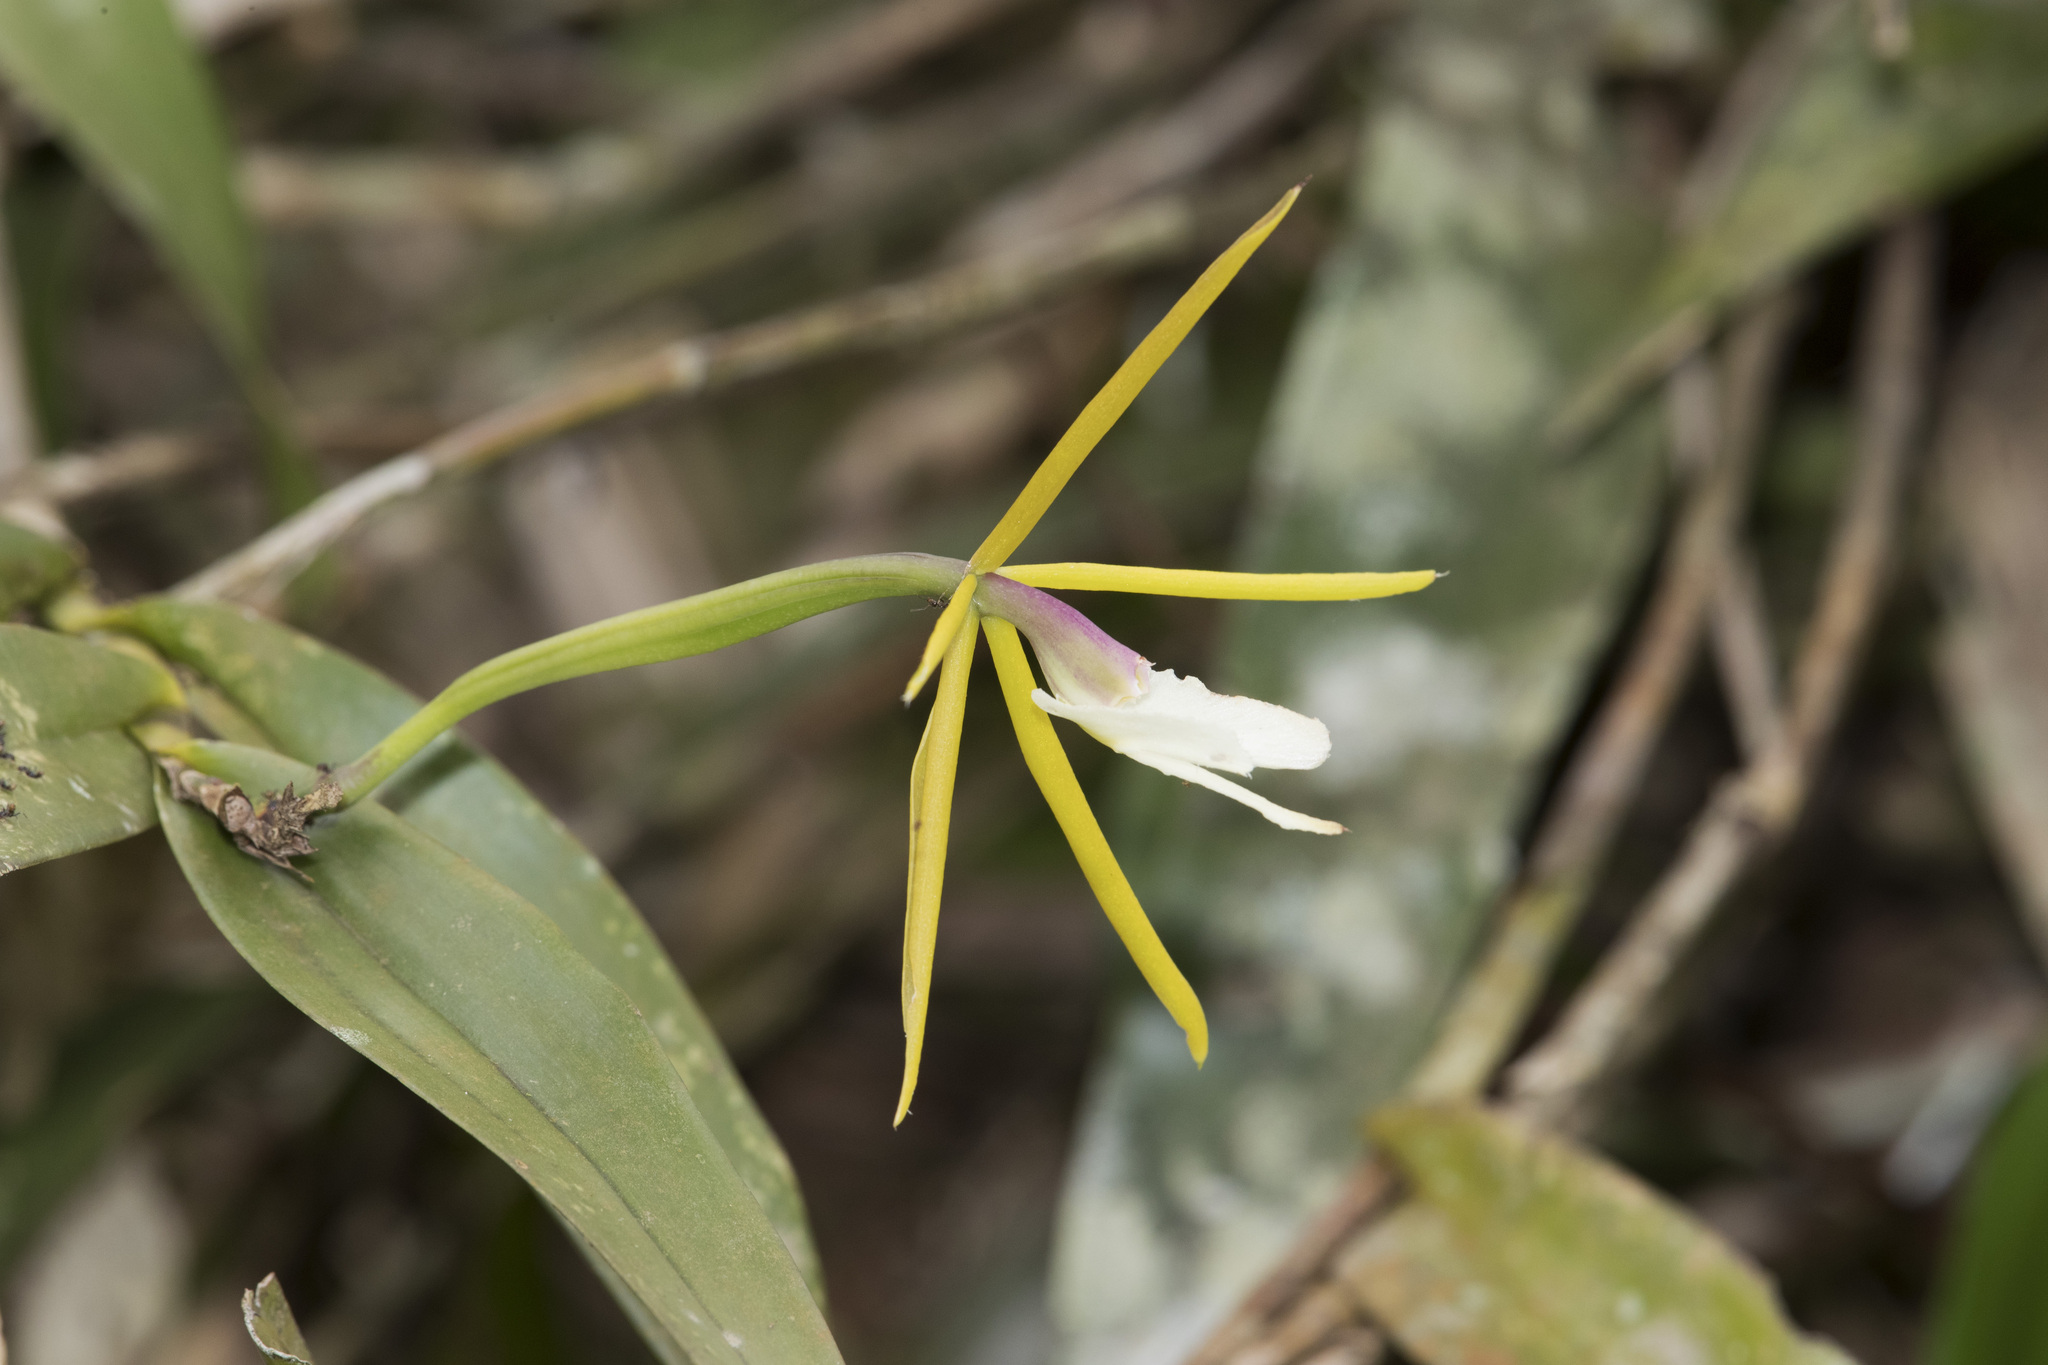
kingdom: Plantae
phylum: Tracheophyta
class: Liliopsida
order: Asparagales
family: Orchidaceae
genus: Epidendrum
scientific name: Epidendrum nocturnum
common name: Night scented orchid
